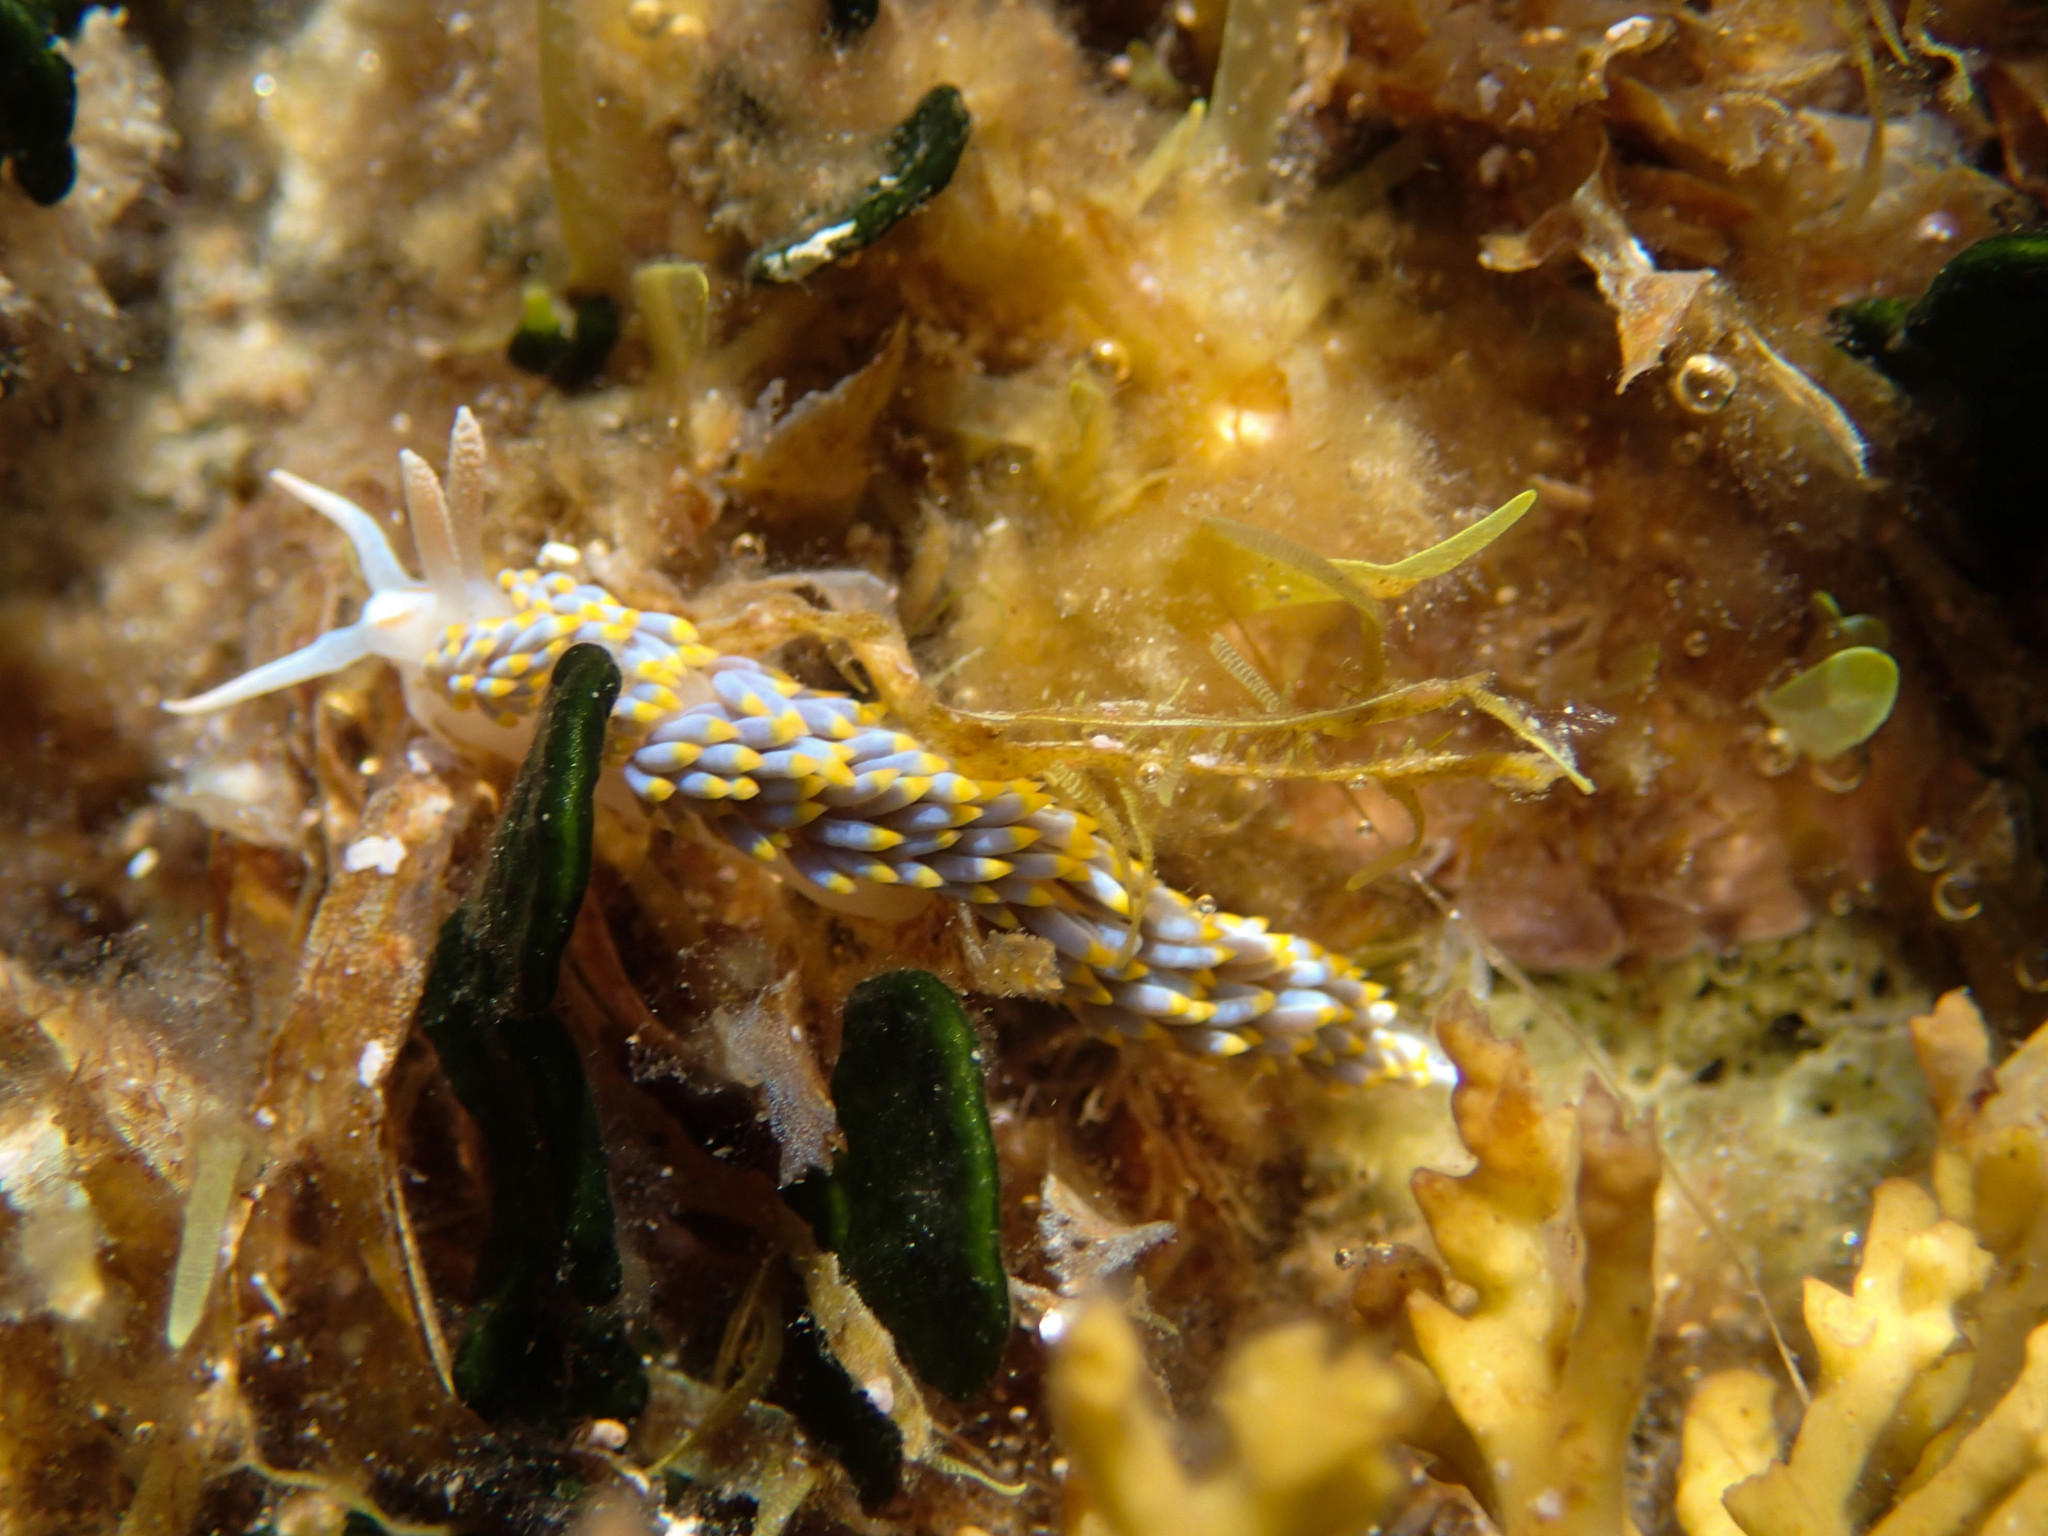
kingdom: Animalia
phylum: Mollusca
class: Gastropoda
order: Nudibranchia
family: Aeolidiidae
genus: Berghia
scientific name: Berghia coerulescens
